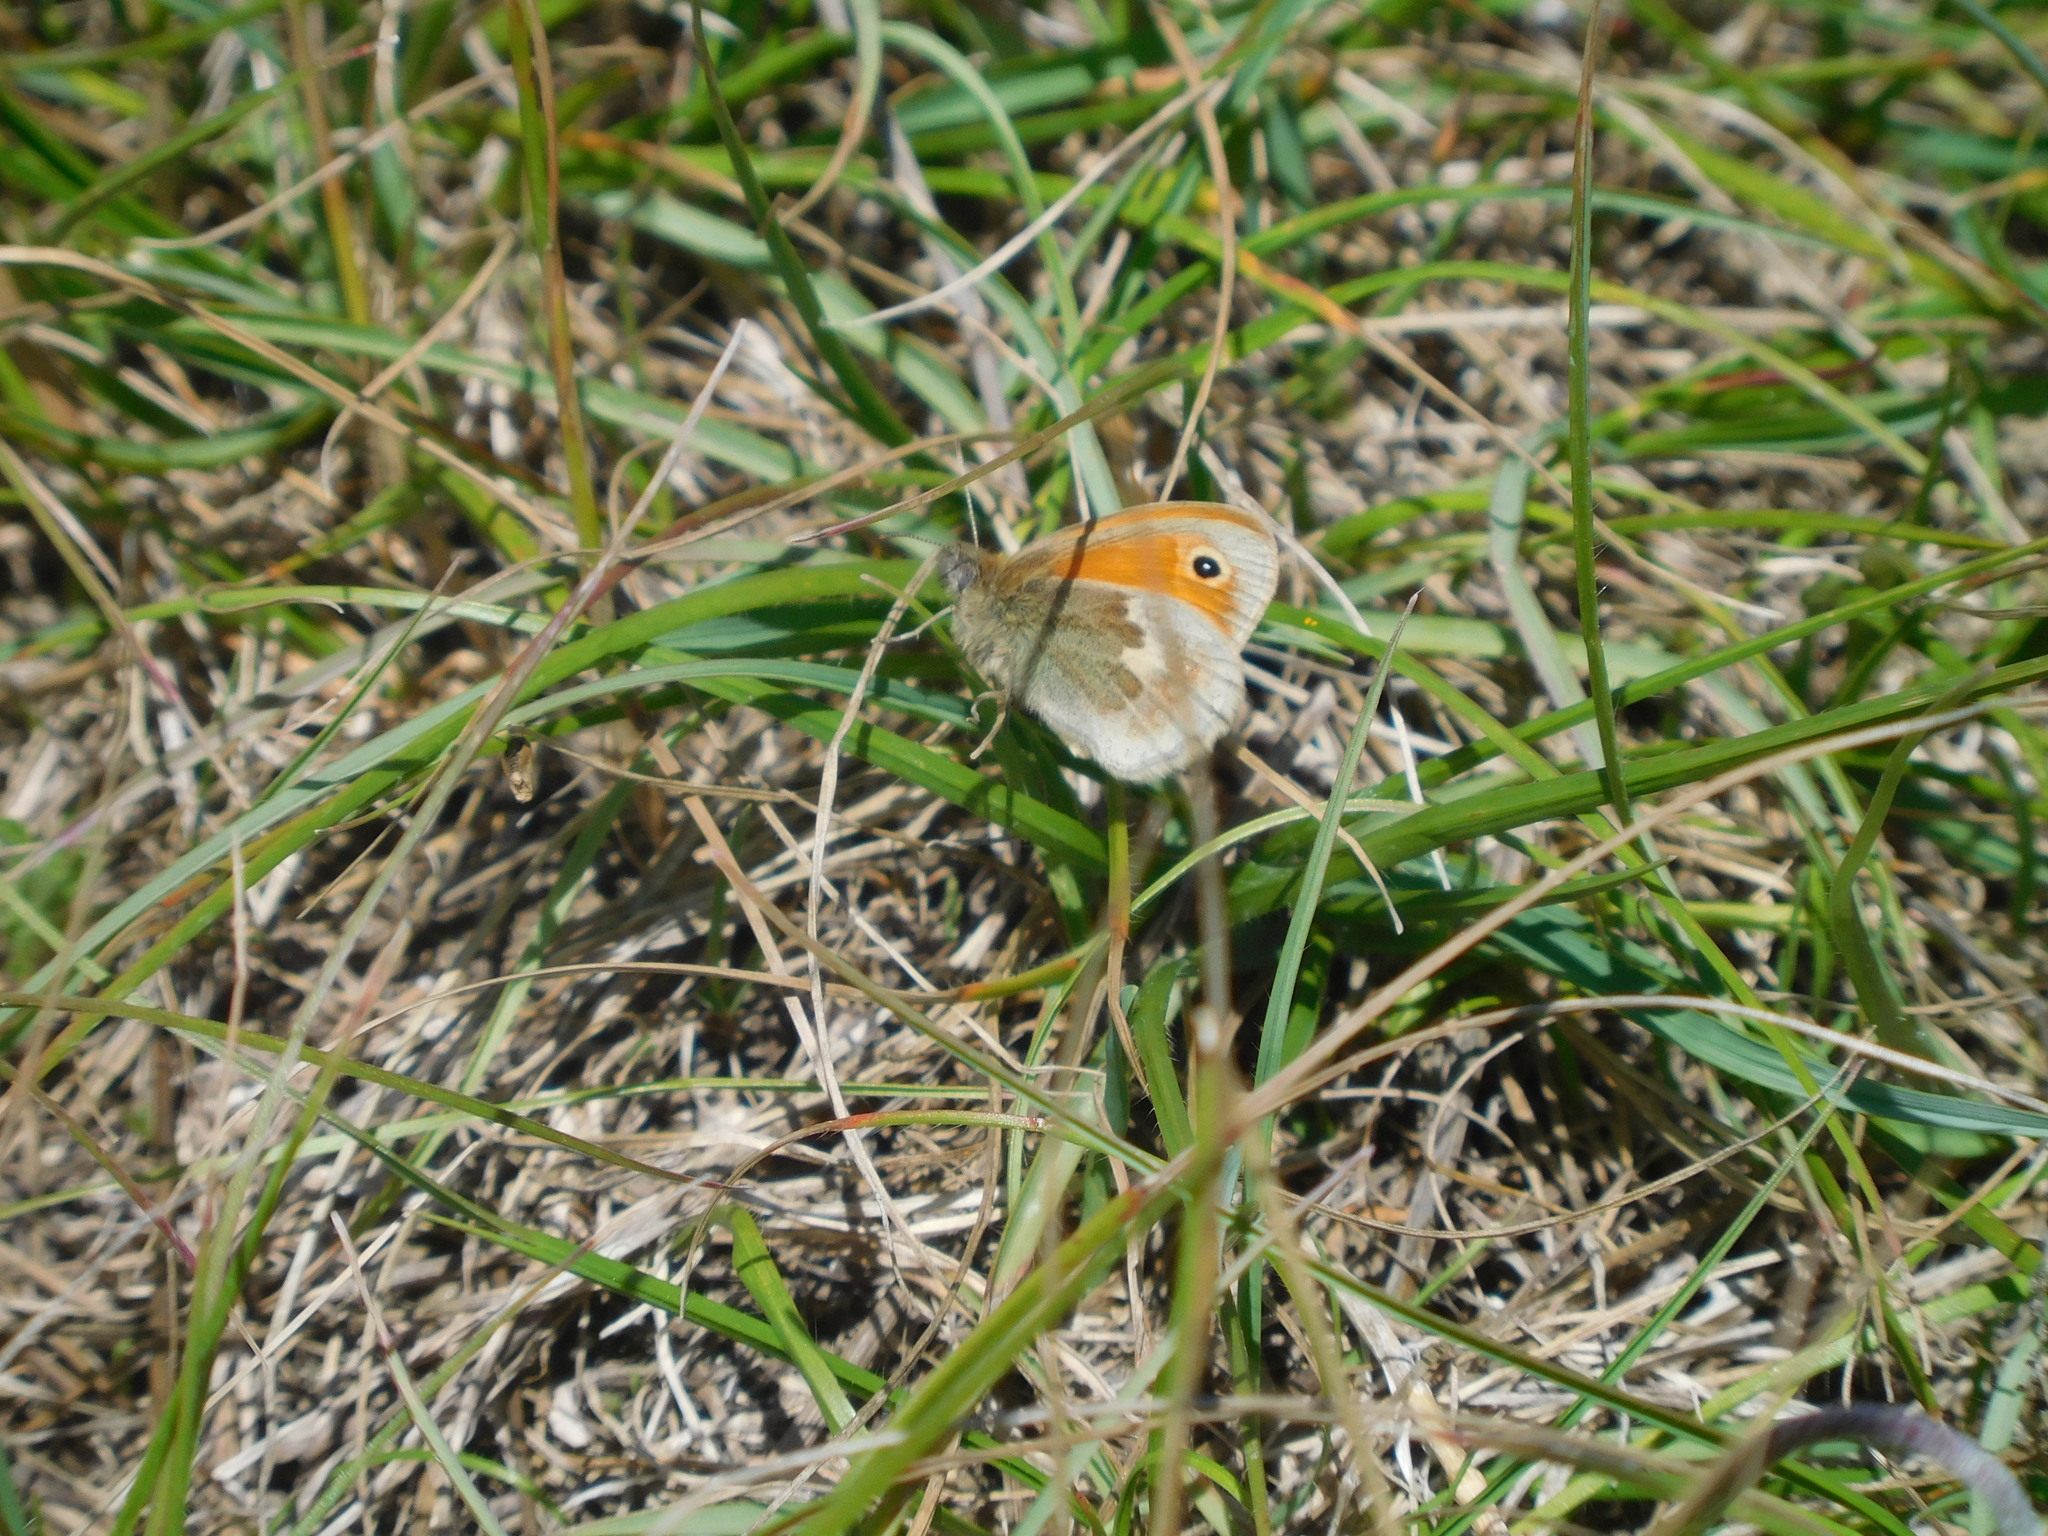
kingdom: Animalia
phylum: Arthropoda
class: Insecta
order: Lepidoptera
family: Nymphalidae
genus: Coenonympha
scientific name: Coenonympha pamphilus
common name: Small heath
